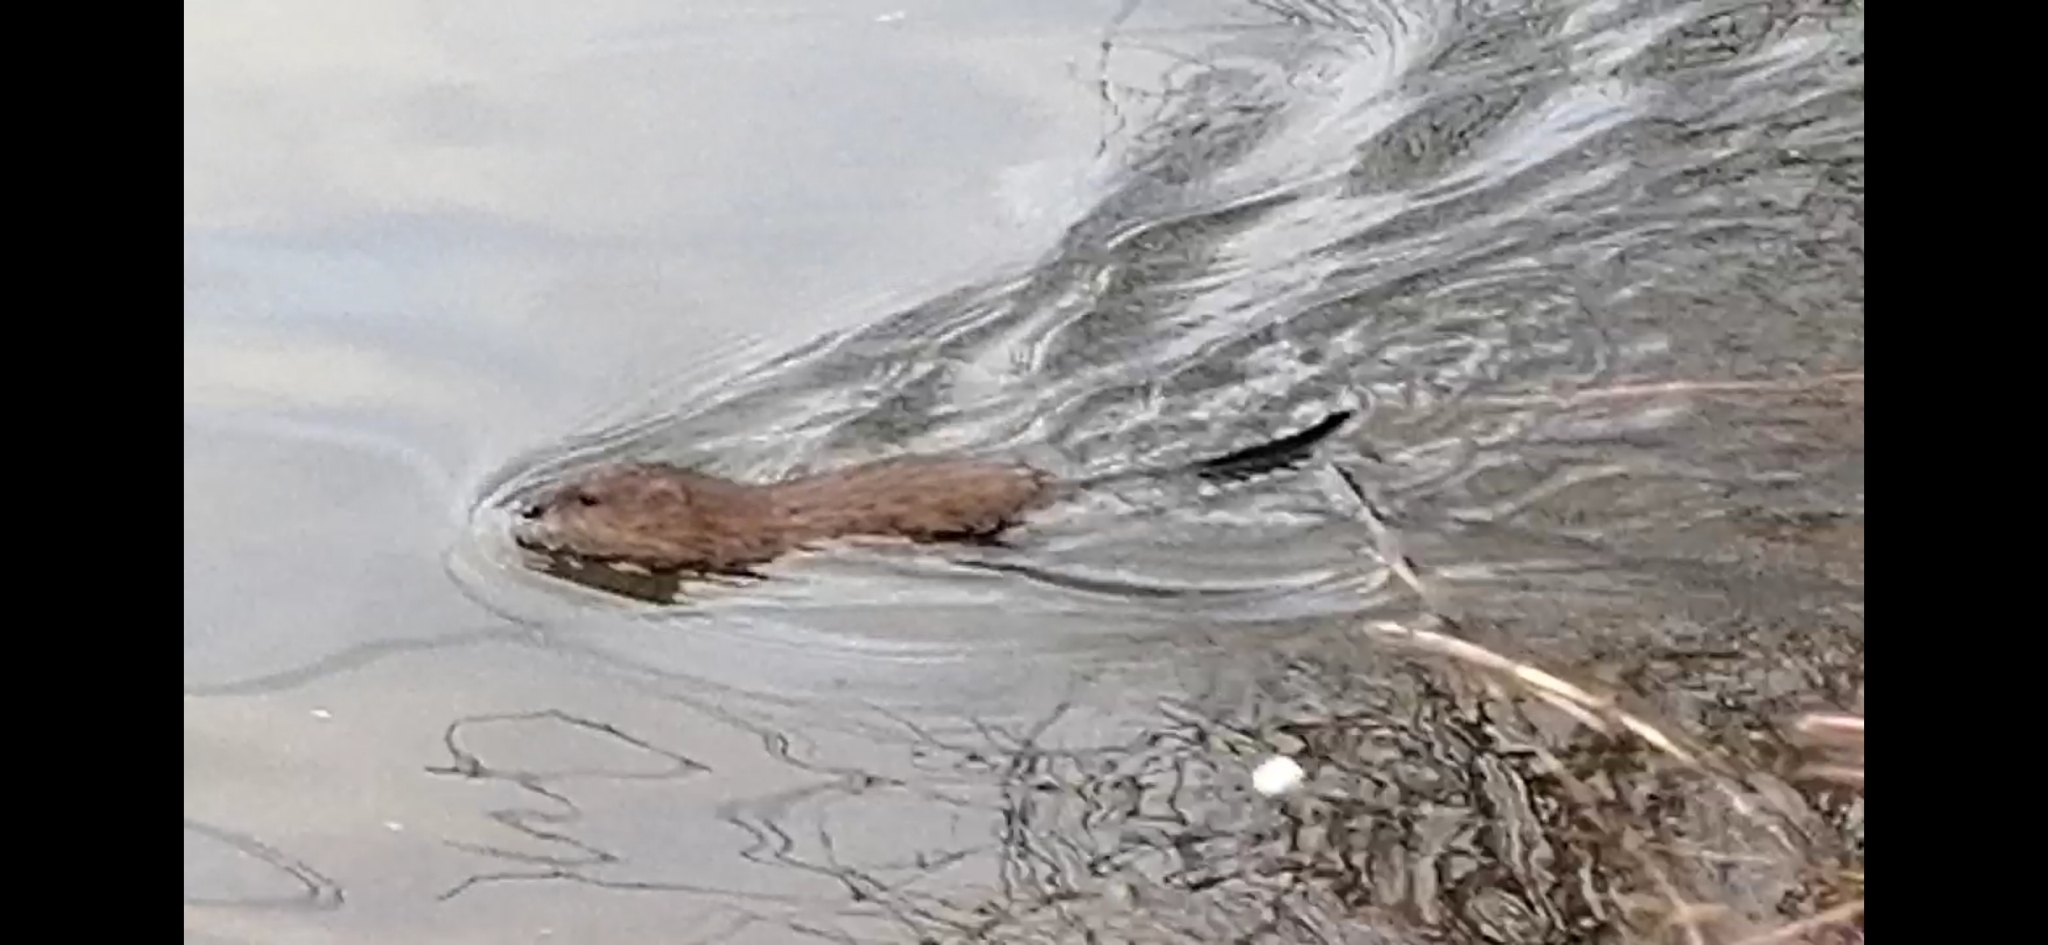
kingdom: Animalia
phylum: Chordata
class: Mammalia
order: Rodentia
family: Cricetidae
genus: Ondatra
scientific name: Ondatra zibethicus
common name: Muskrat
